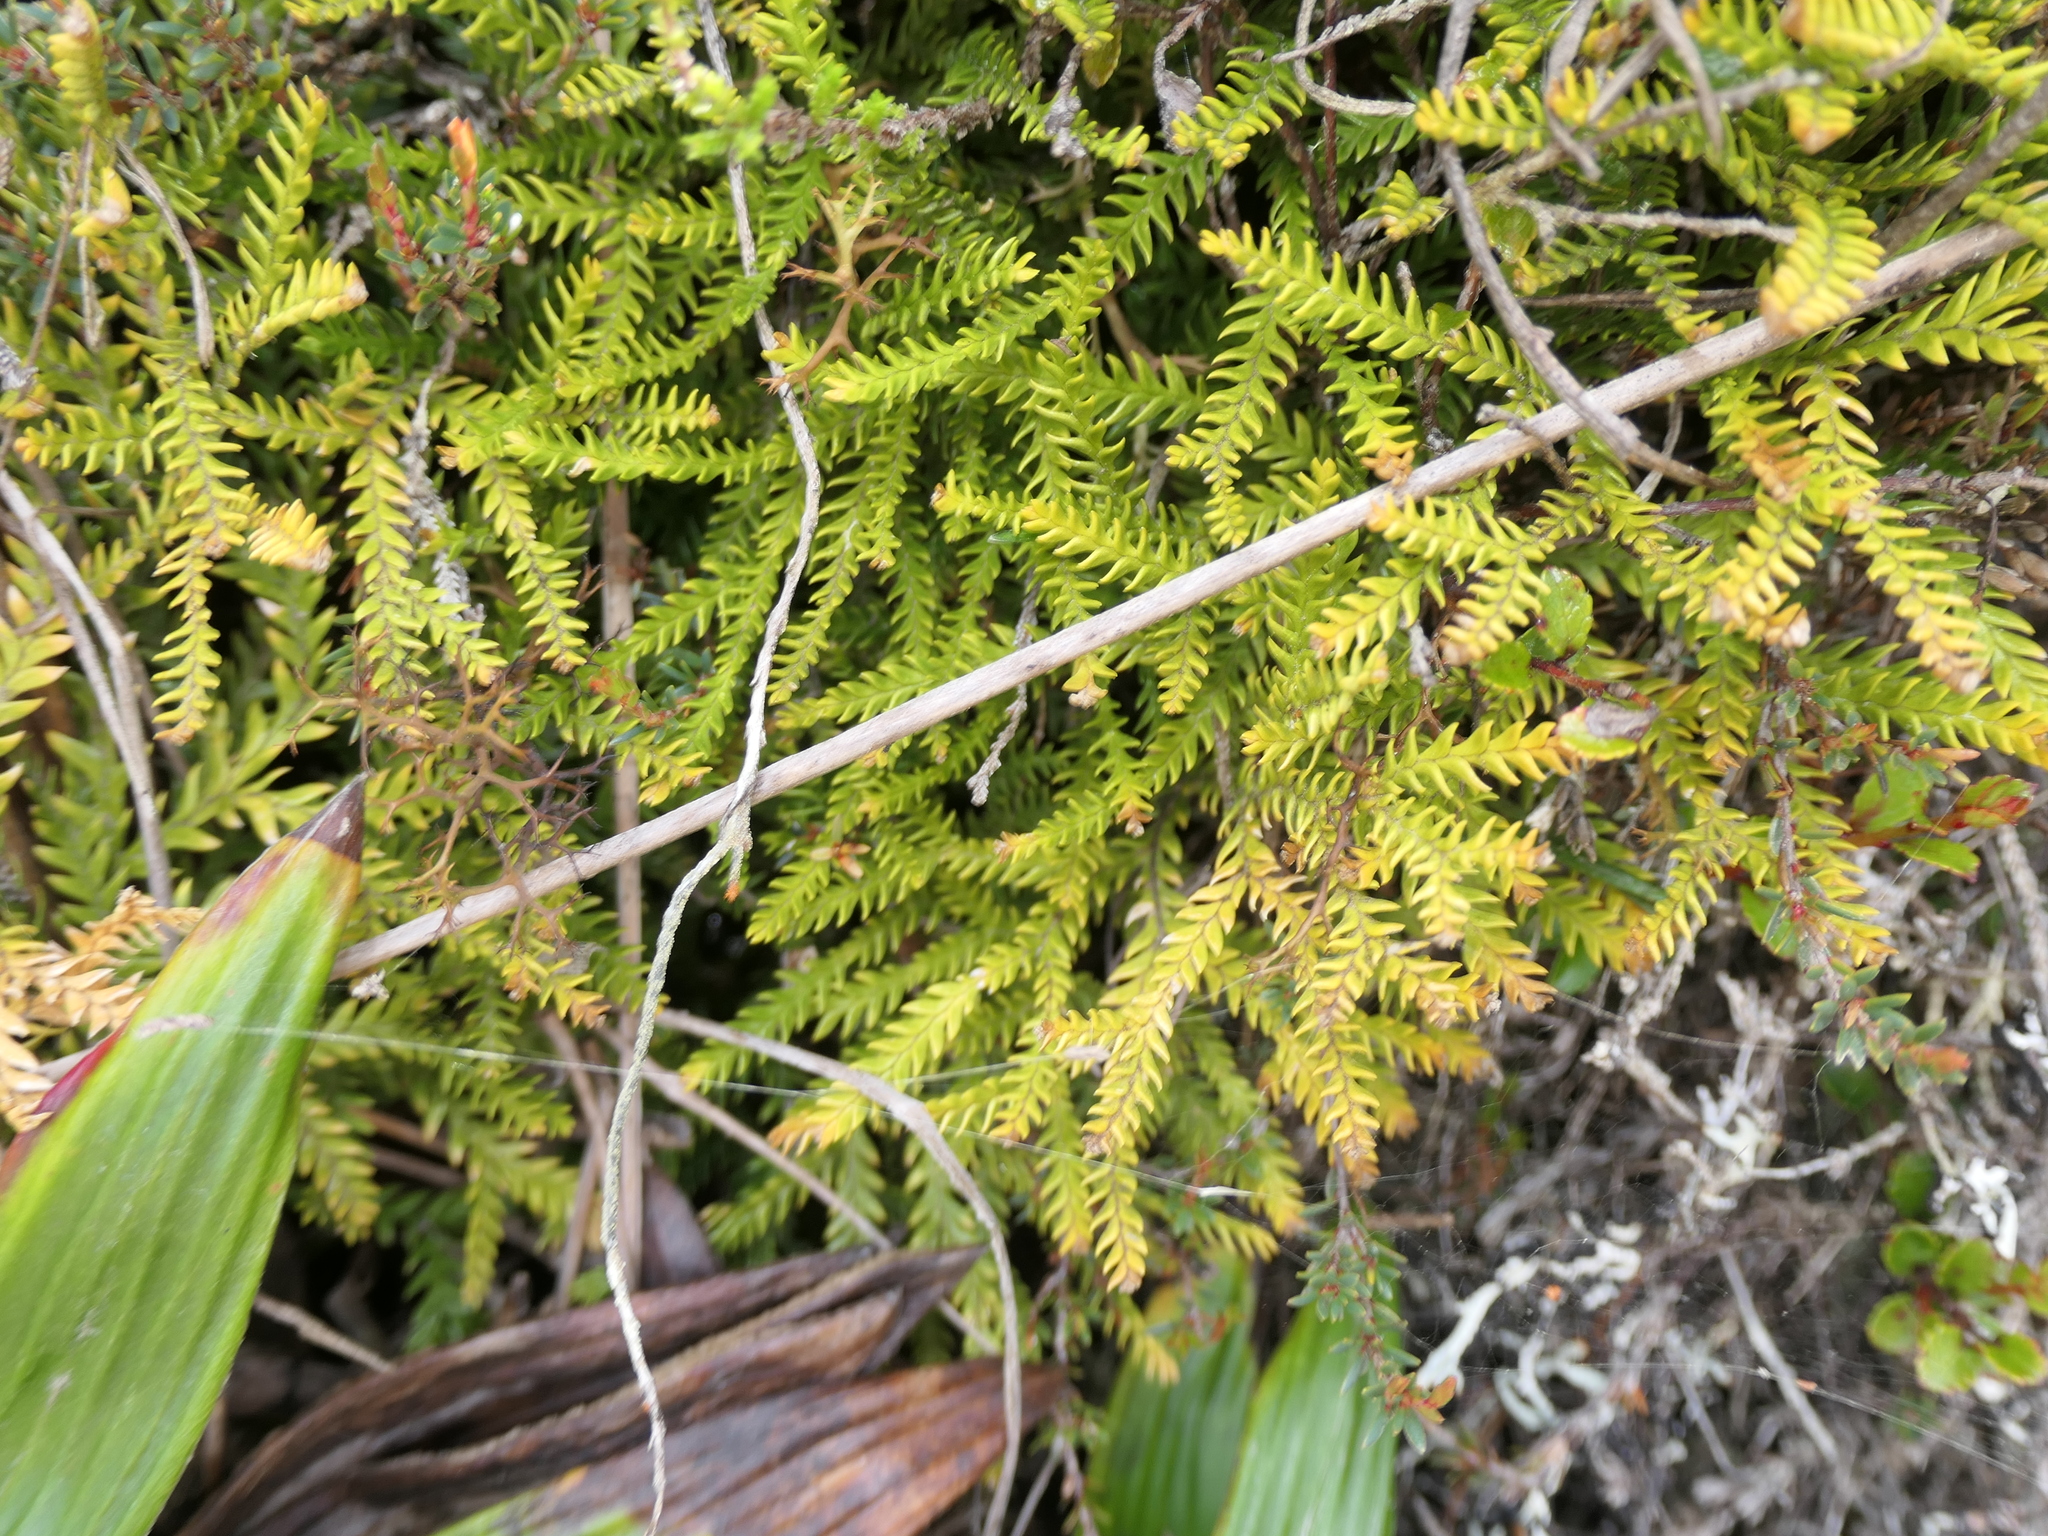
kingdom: Plantae
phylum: Tracheophyta
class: Lycopodiopsida
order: Lycopodiales
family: Lycopodiaceae
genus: Diphasium
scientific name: Diphasium scariosum
